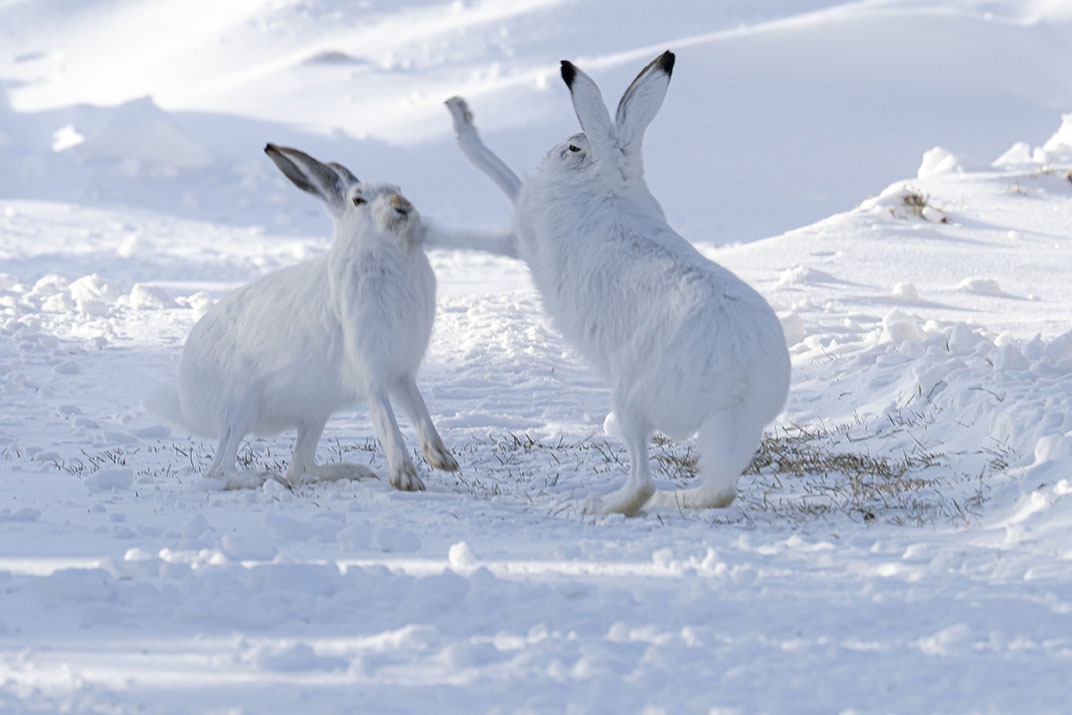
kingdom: Animalia
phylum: Chordata
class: Mammalia
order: Lagomorpha
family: Leporidae
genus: Lepus
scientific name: Lepus townsendii
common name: White-tailed jackrabbit
